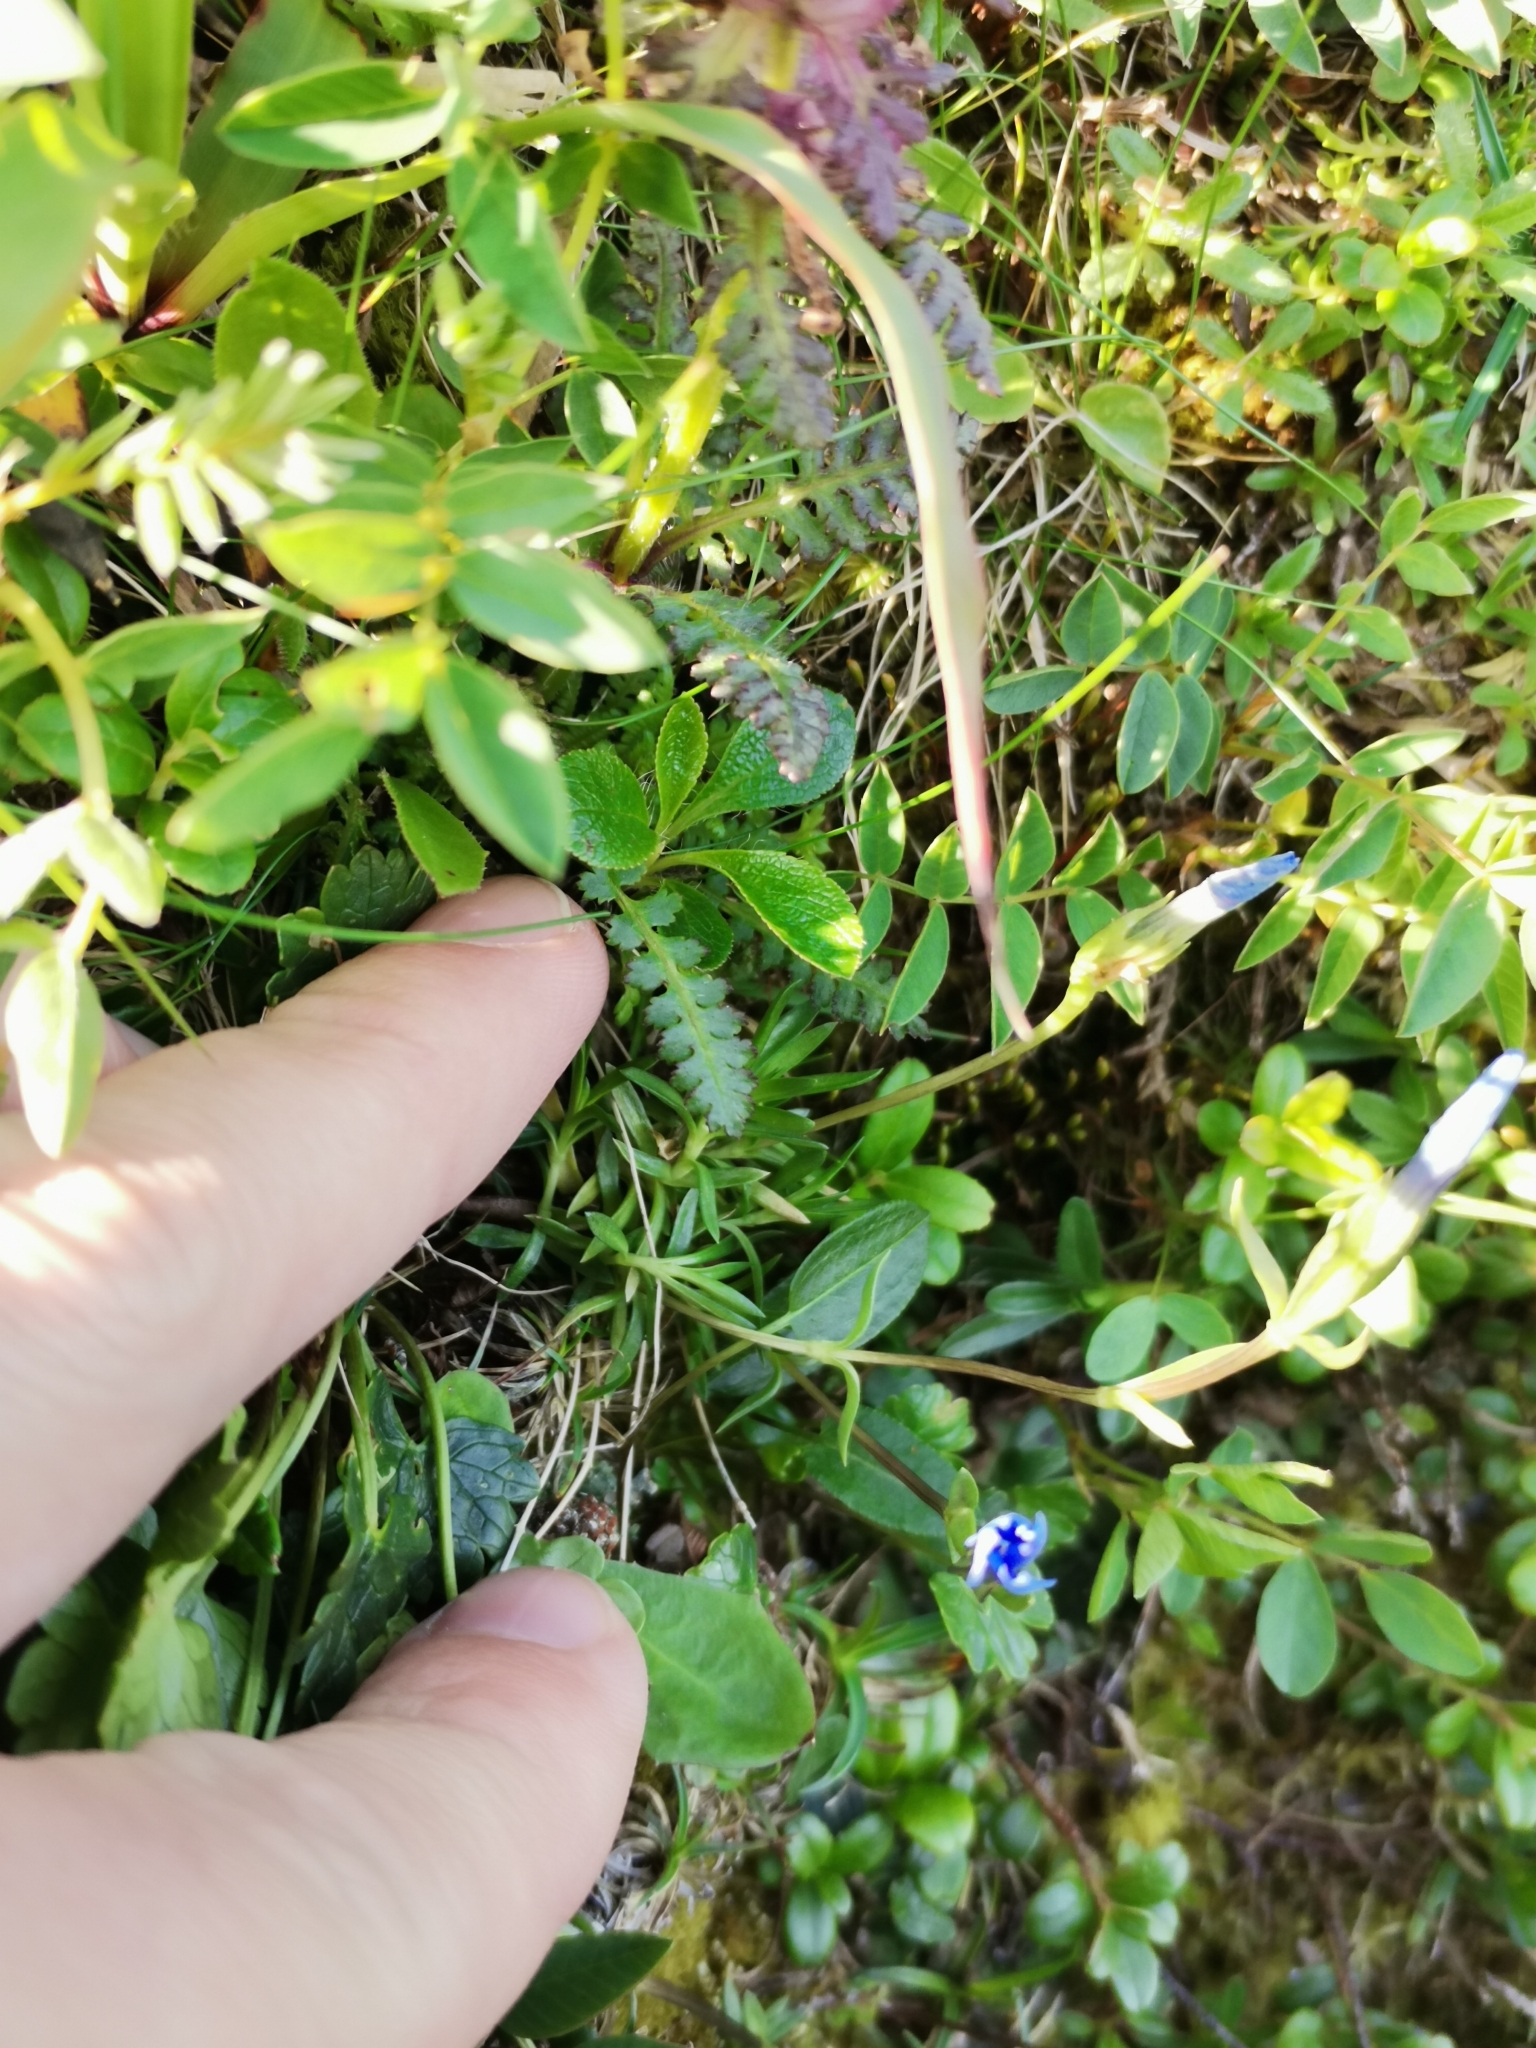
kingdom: Plantae
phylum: Tracheophyta
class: Magnoliopsida
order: Gentianales
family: Gentianaceae
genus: Gentiana
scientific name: Gentiana pumila
